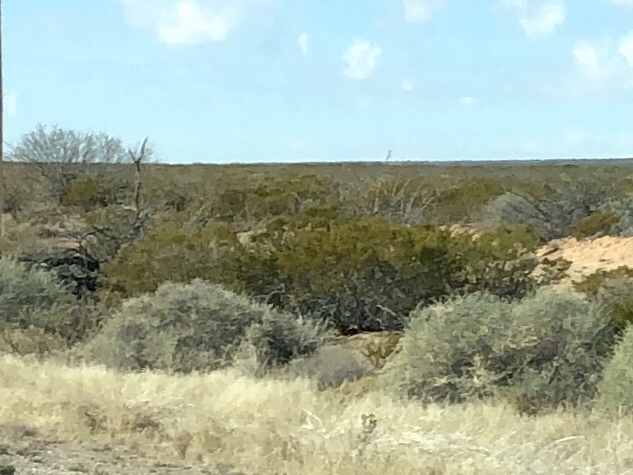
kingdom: Plantae
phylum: Tracheophyta
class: Magnoliopsida
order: Zygophyllales
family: Zygophyllaceae
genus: Larrea
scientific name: Larrea tridentata
